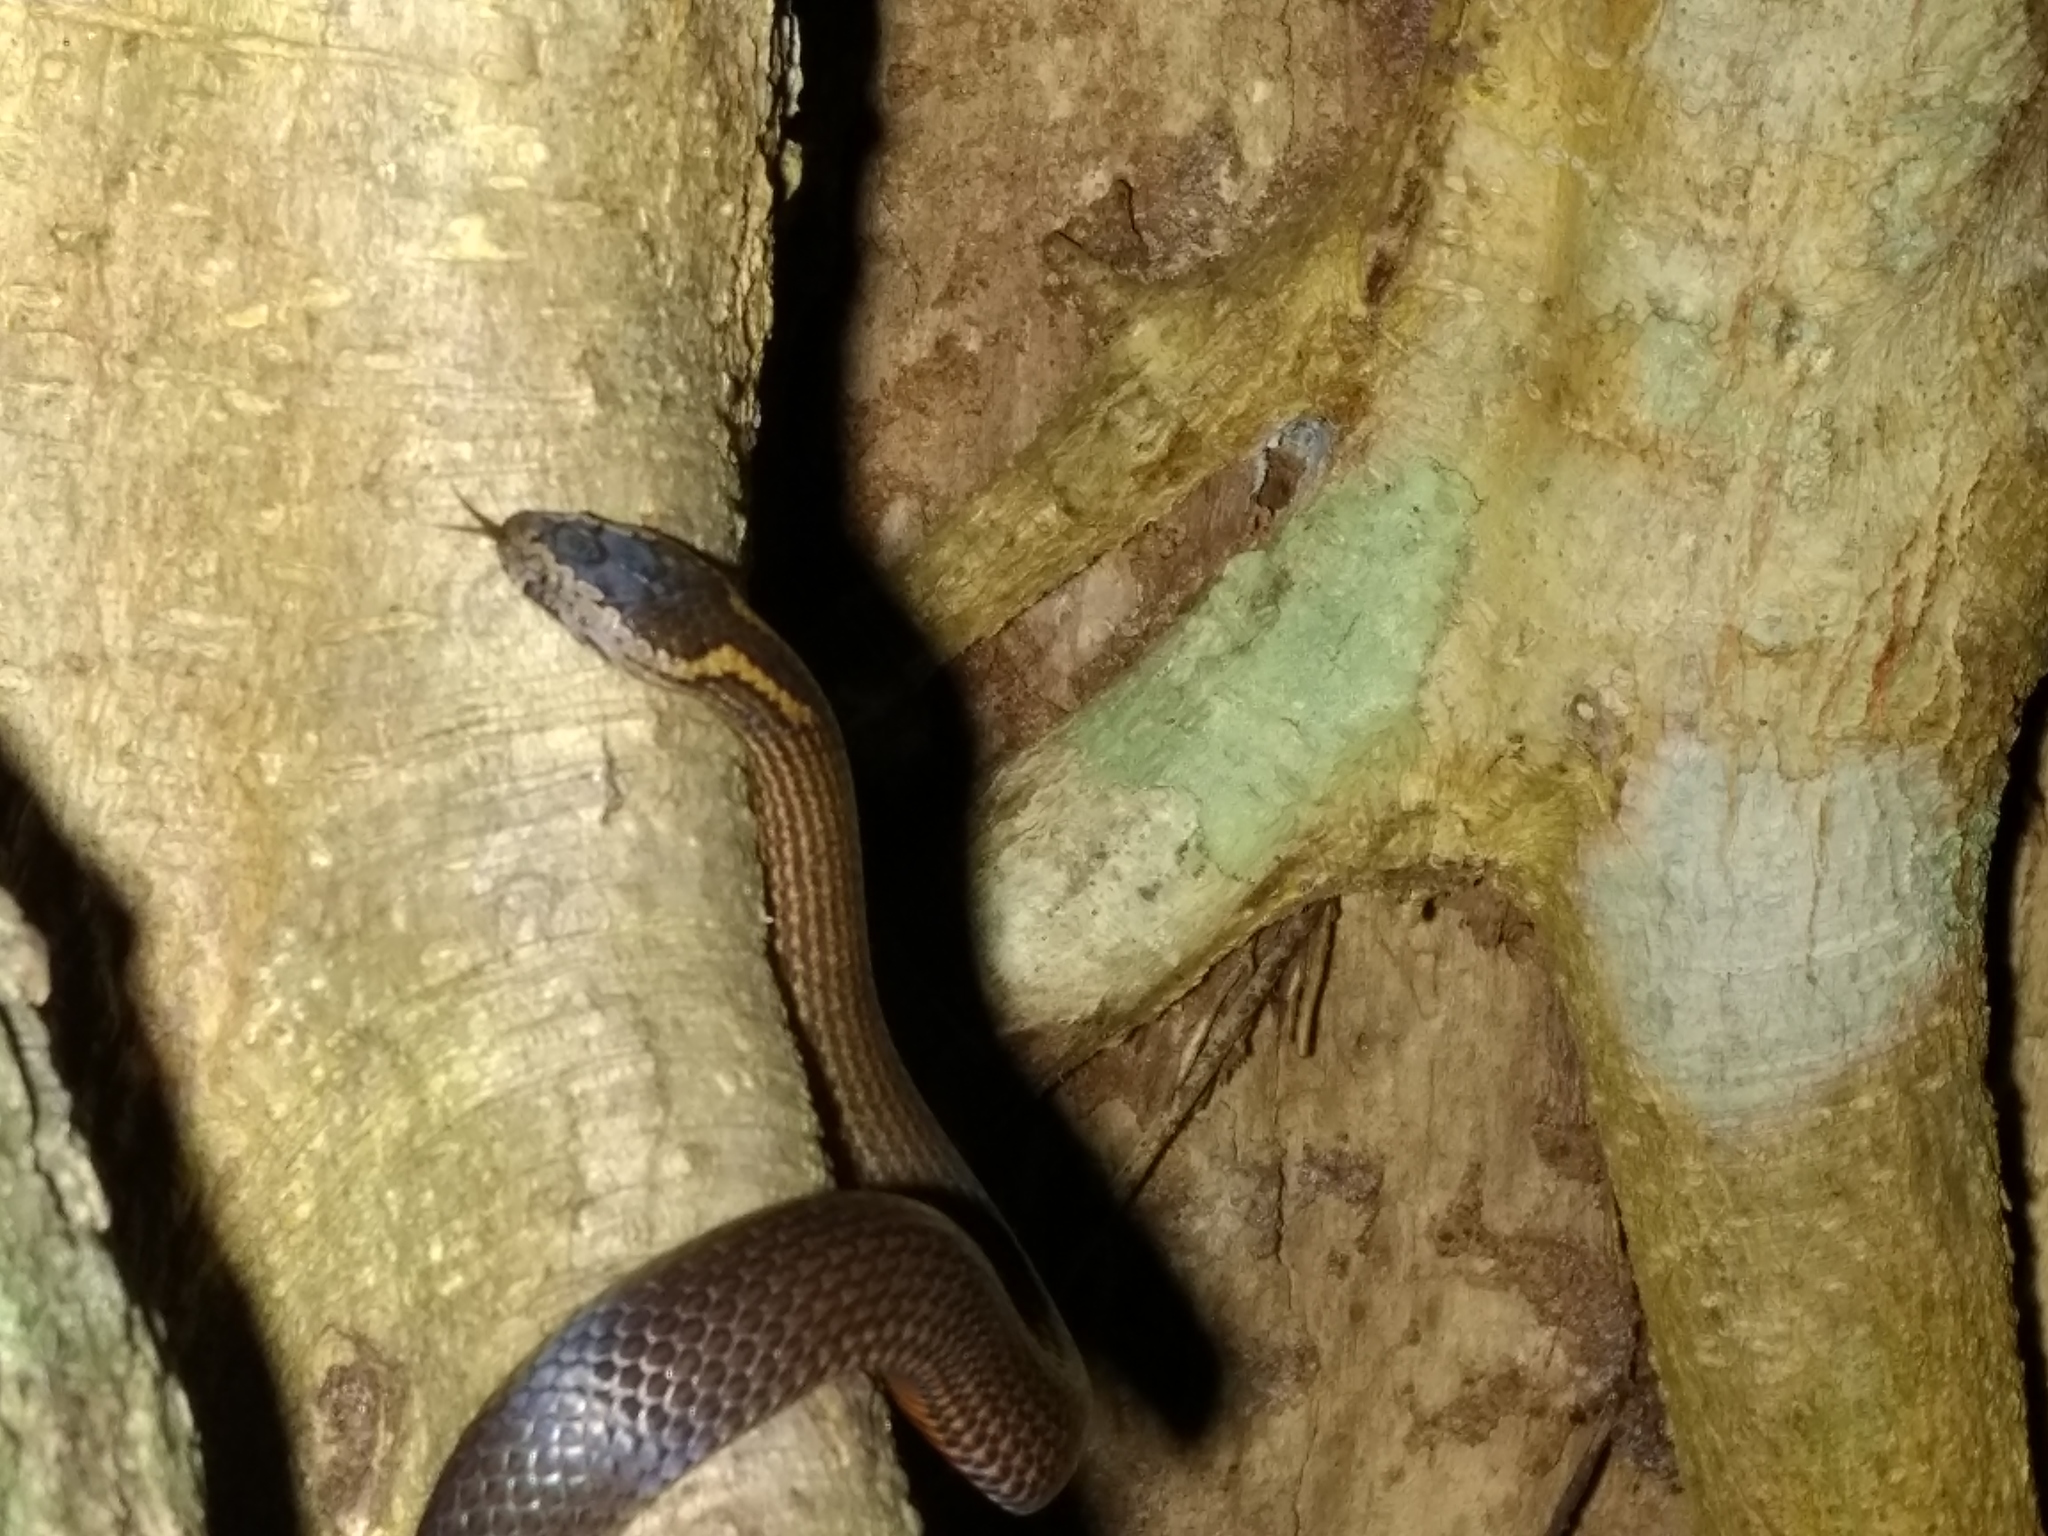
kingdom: Animalia
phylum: Chordata
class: Squamata
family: Elapidae
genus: Cacophis
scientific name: Cacophis squamulosus
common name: Golden crowned snake
